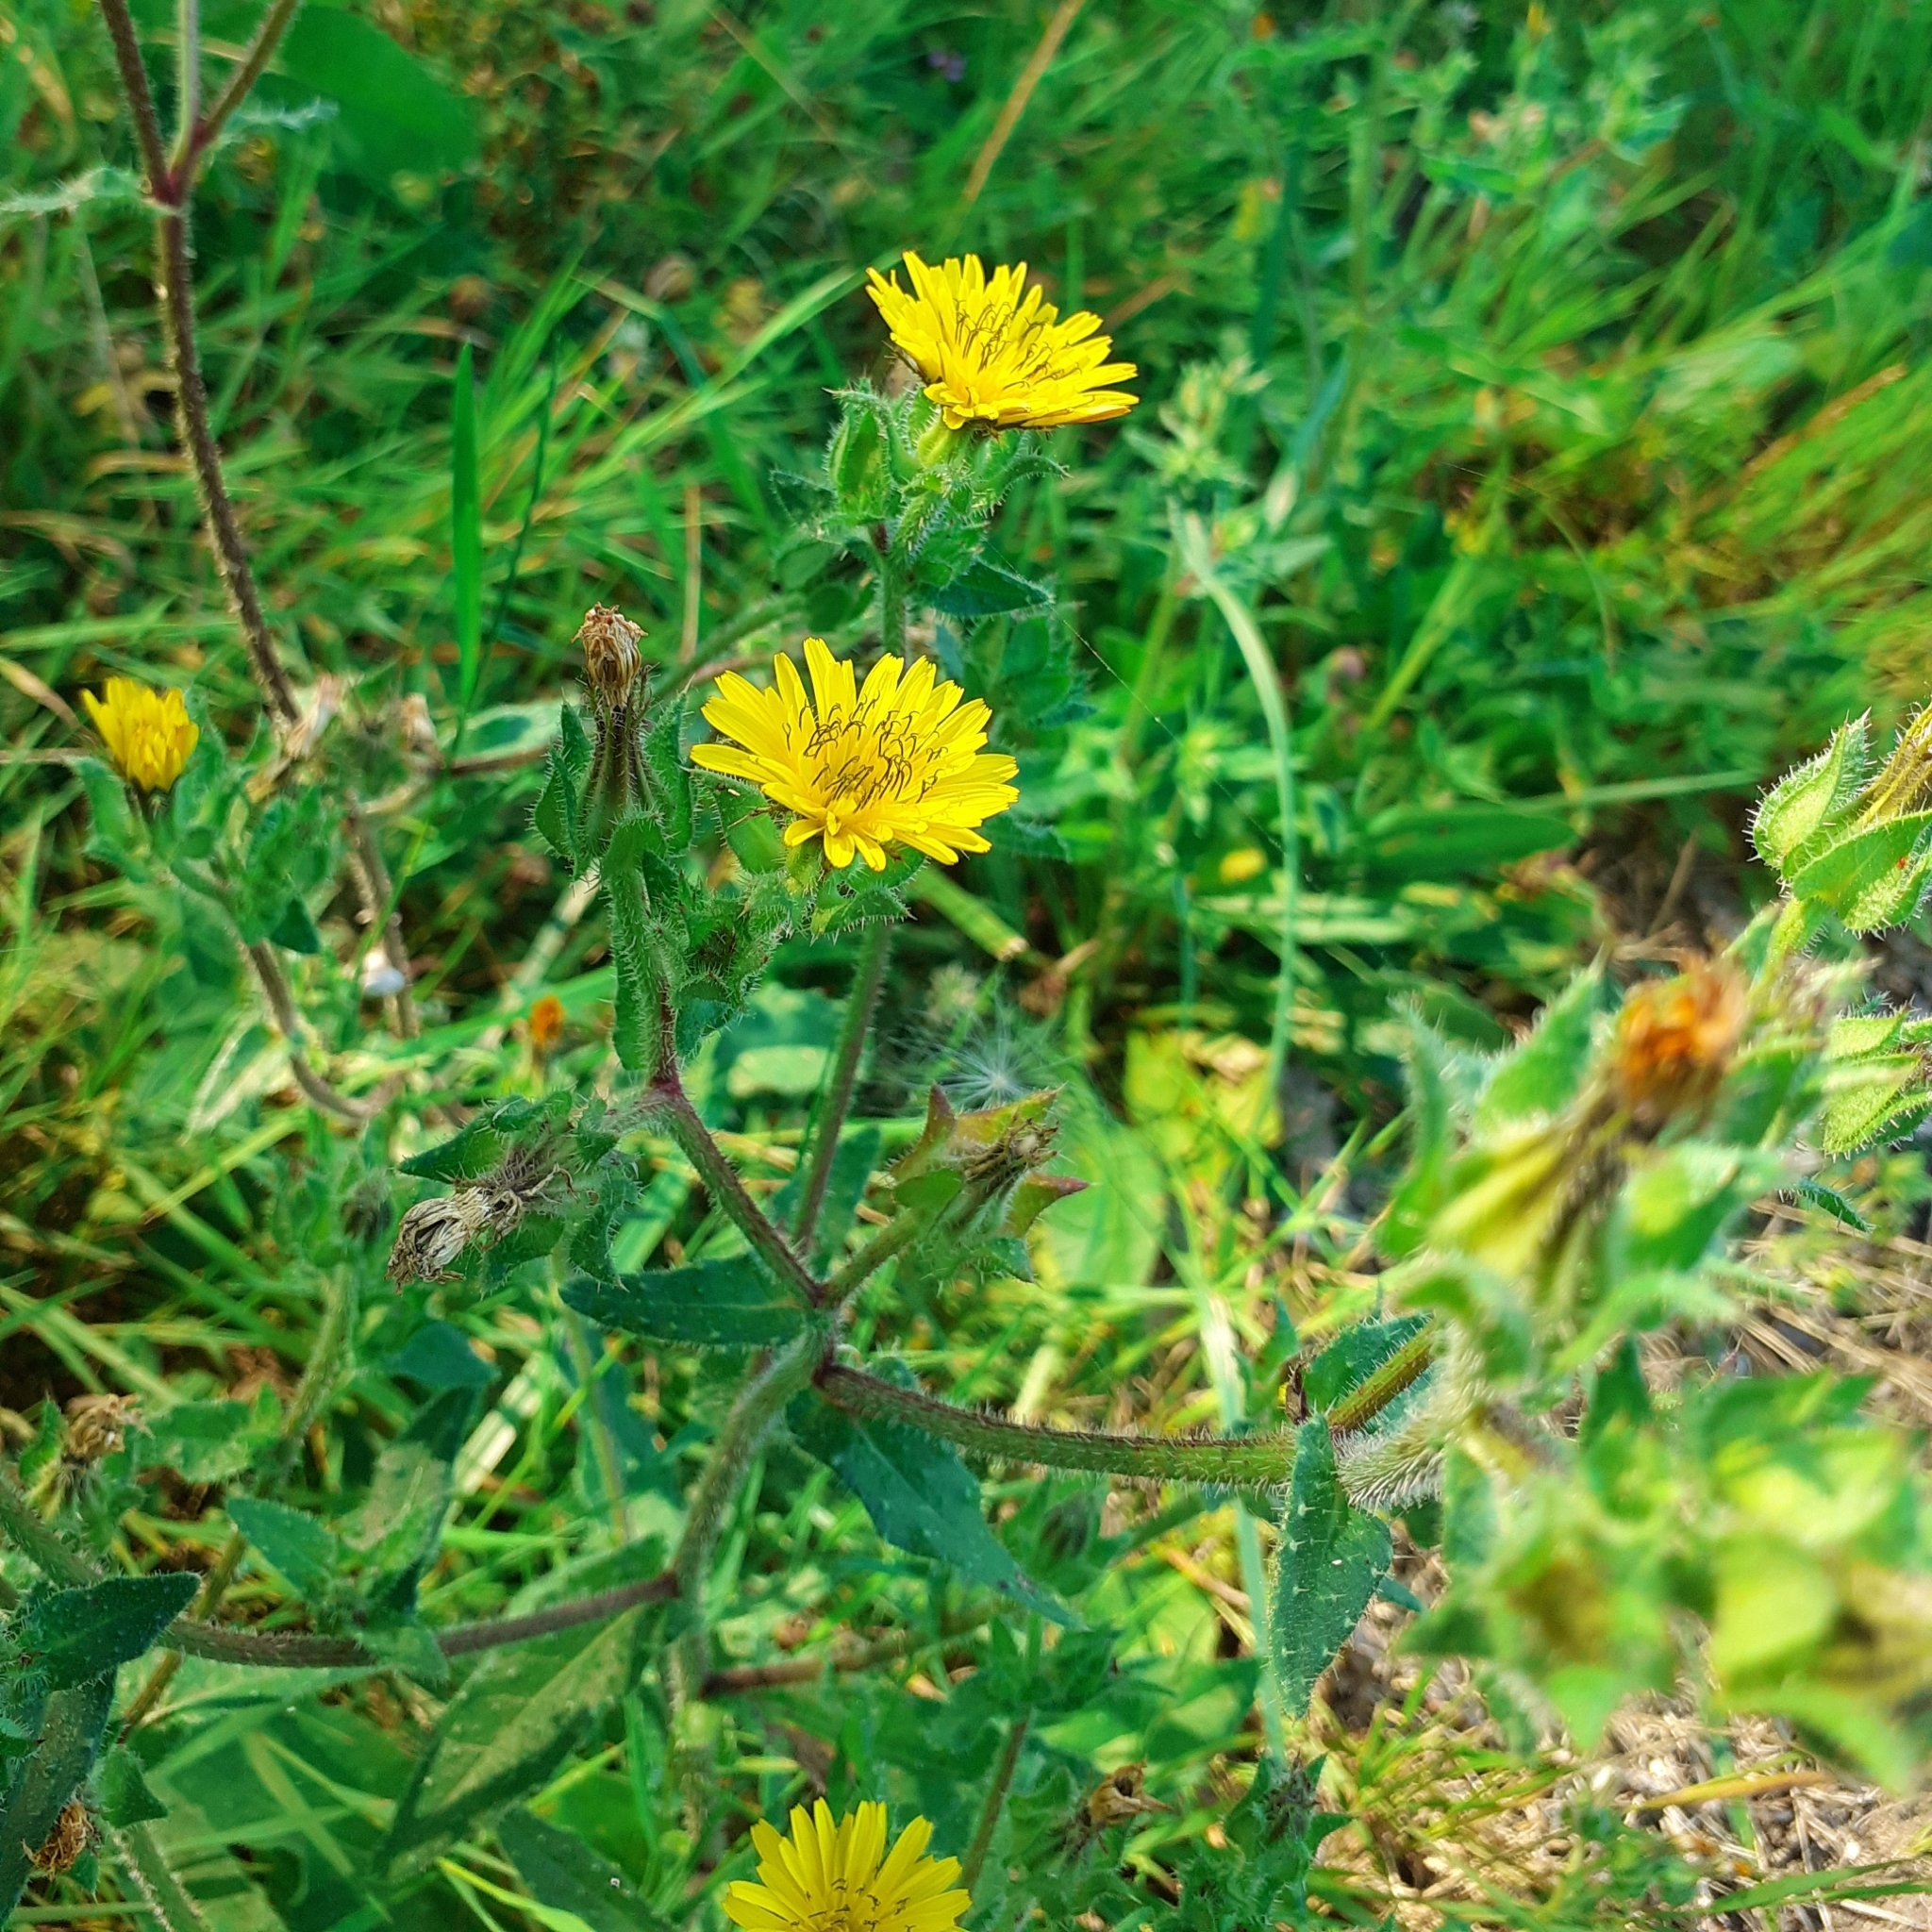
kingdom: Plantae
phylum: Tracheophyta
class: Magnoliopsida
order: Asterales
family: Asteraceae
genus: Helminthotheca
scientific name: Helminthotheca echioides
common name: Ox-tongue
